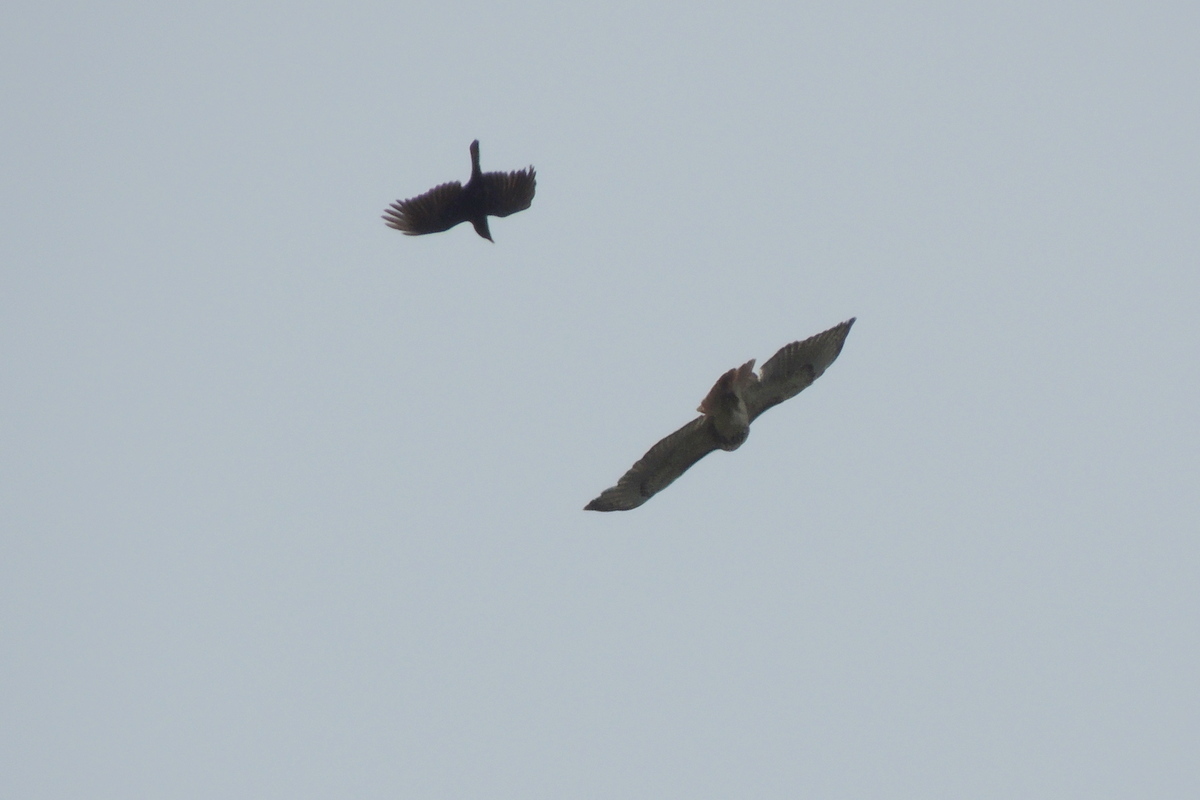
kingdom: Animalia
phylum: Chordata
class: Aves
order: Accipitriformes
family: Accipitridae
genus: Buteo
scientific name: Buteo jamaicensis
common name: Red-tailed hawk
